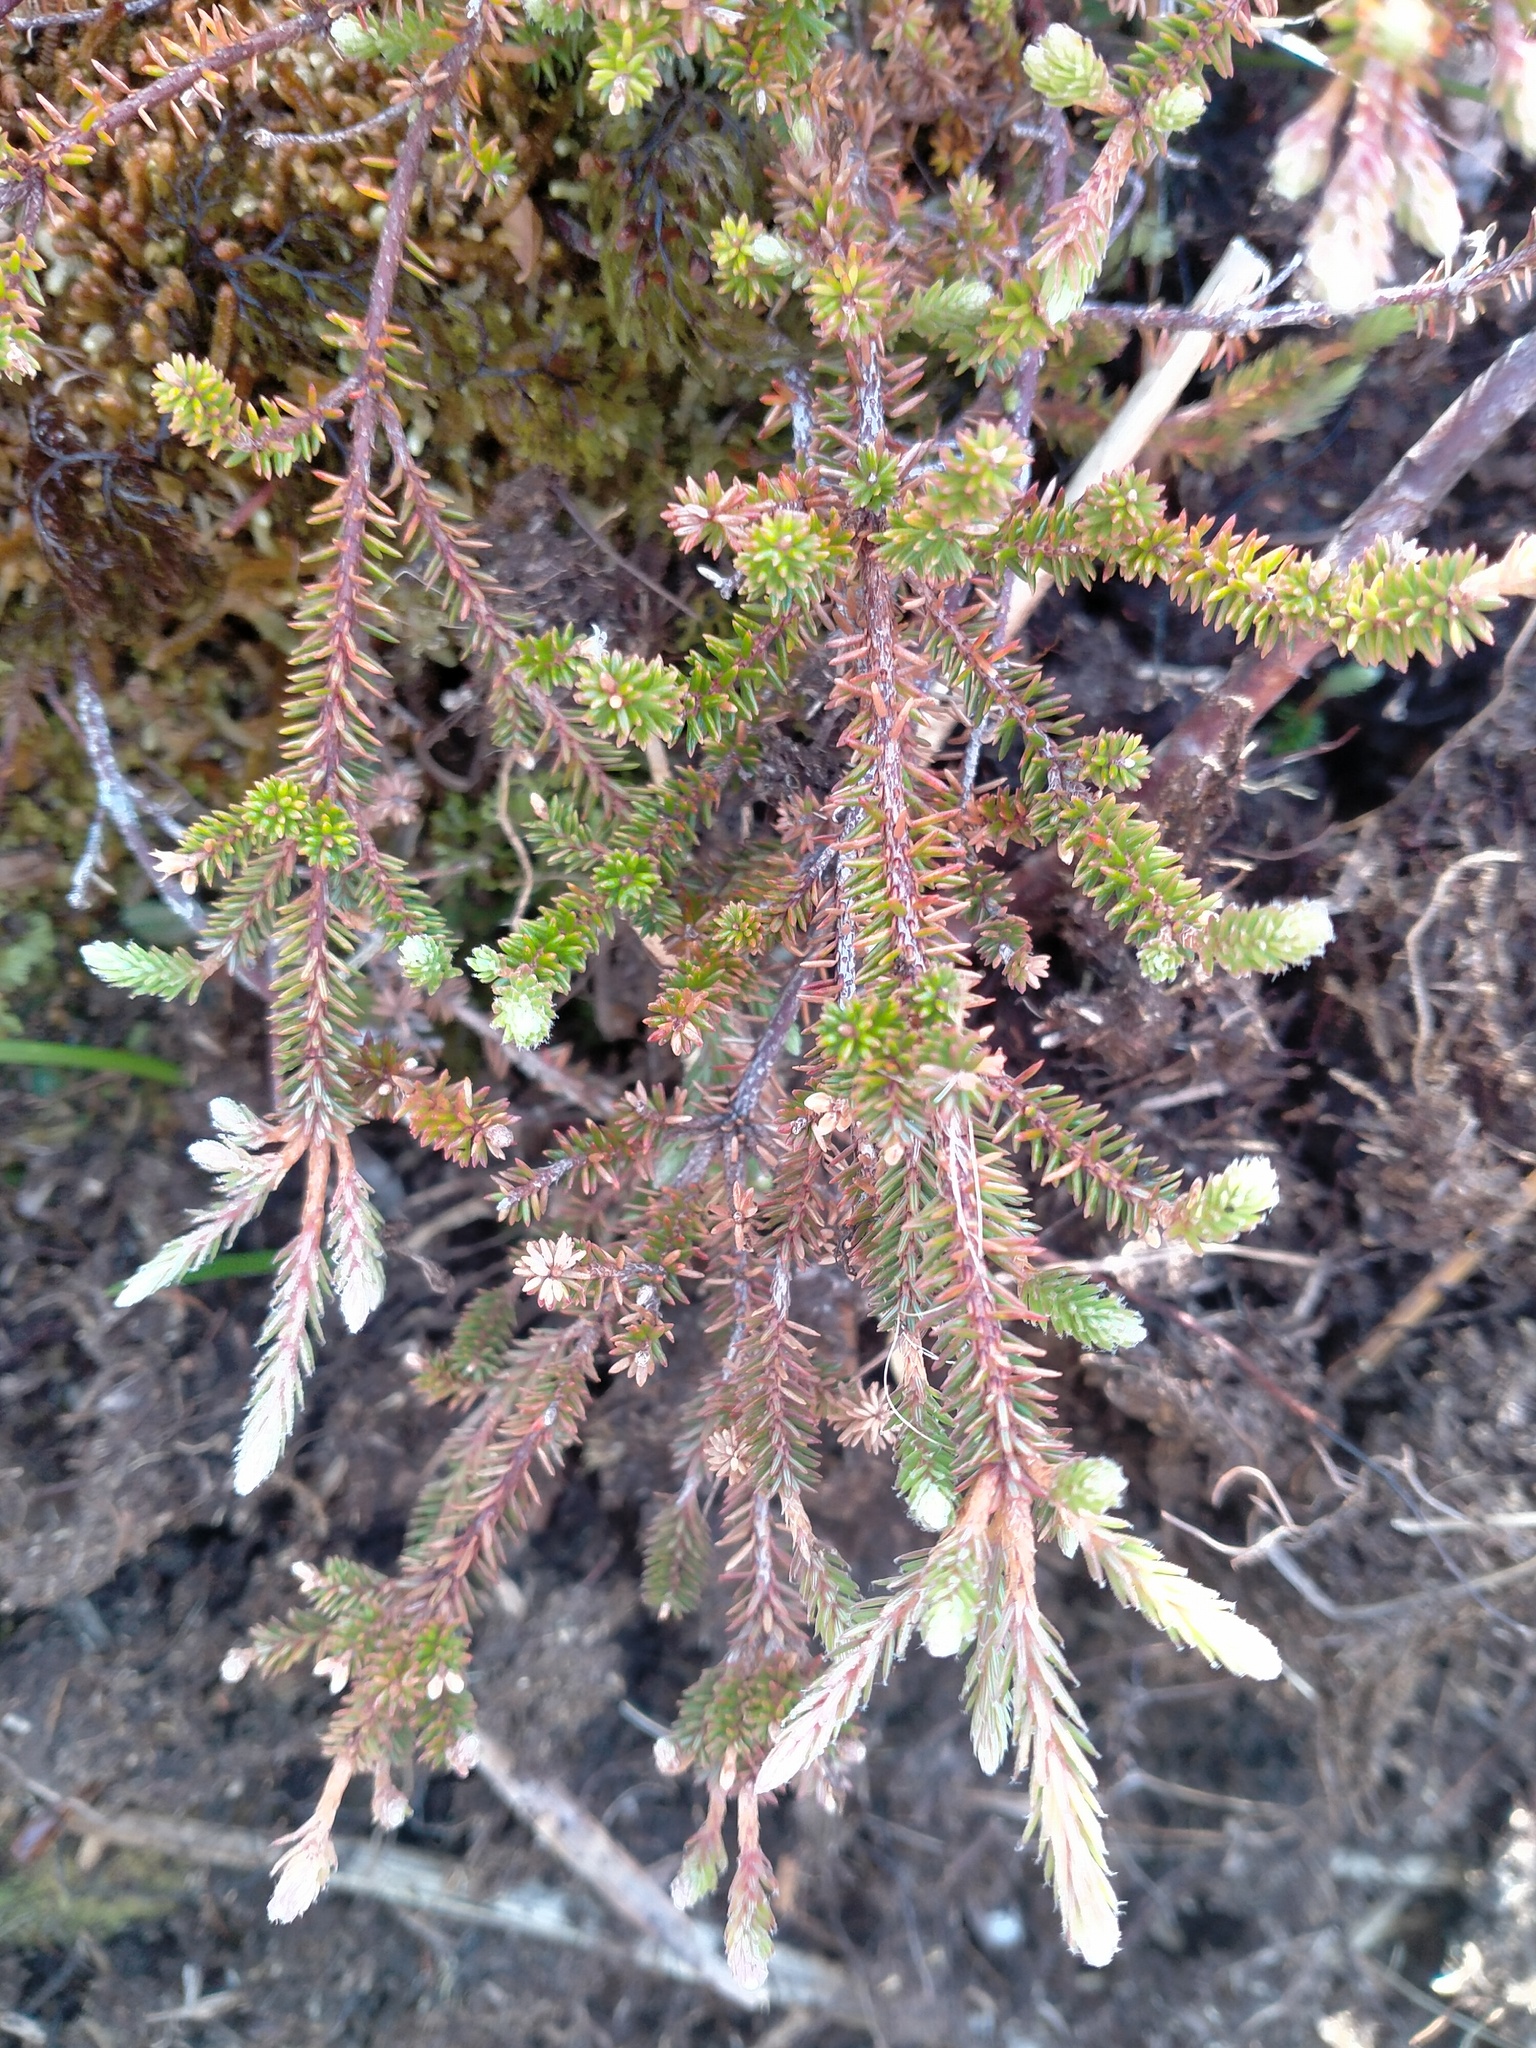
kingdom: Plantae
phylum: Tracheophyta
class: Magnoliopsida
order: Ericales
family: Ericaceae
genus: Androstoma
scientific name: Androstoma empetrifolia
